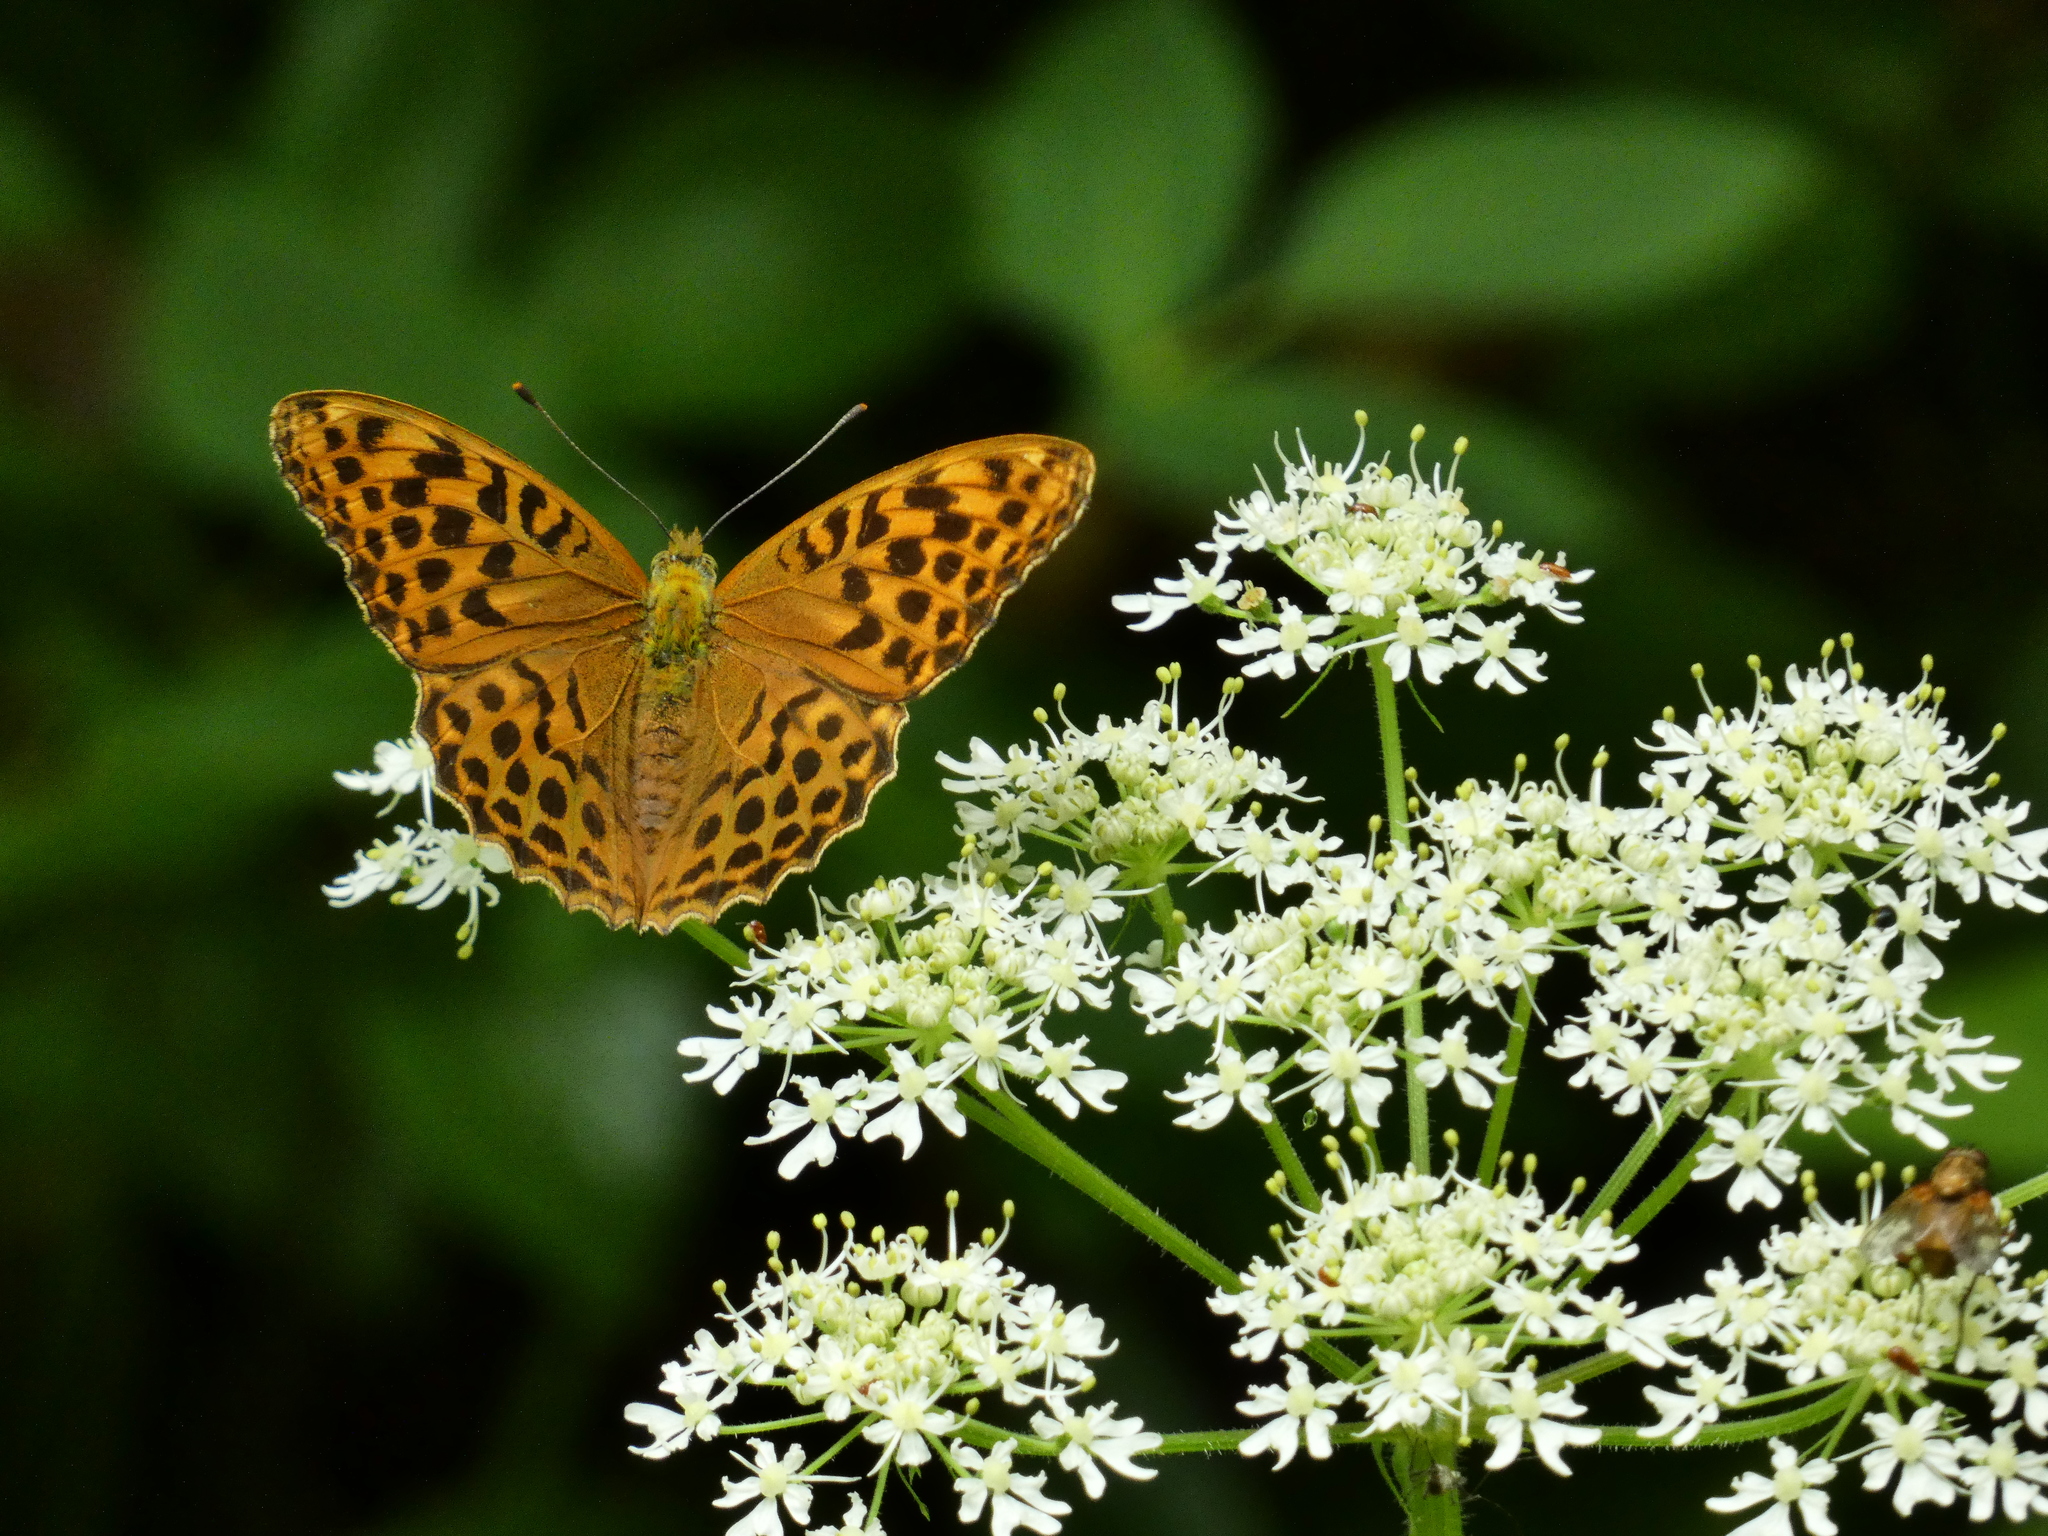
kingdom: Animalia
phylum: Arthropoda
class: Insecta
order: Lepidoptera
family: Nymphalidae
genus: Argynnis
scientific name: Argynnis paphia
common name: Silver-washed fritillary
